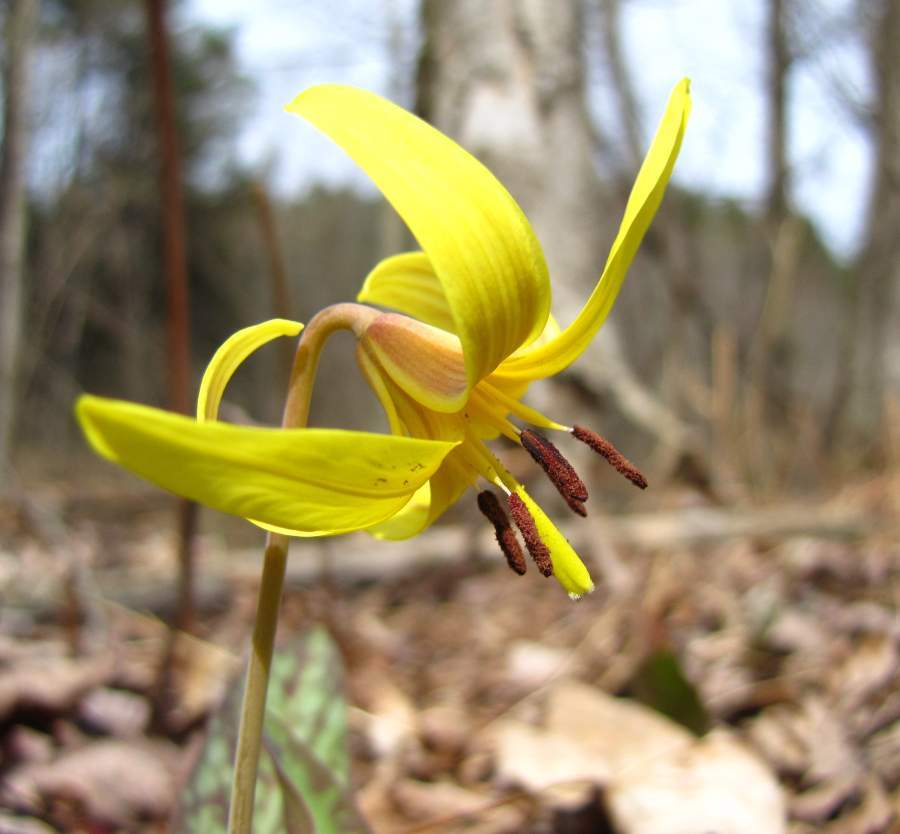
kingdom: Plantae
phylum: Tracheophyta
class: Liliopsida
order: Liliales
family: Liliaceae
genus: Erythronium
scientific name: Erythronium americanum
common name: Yellow adder's-tongue
